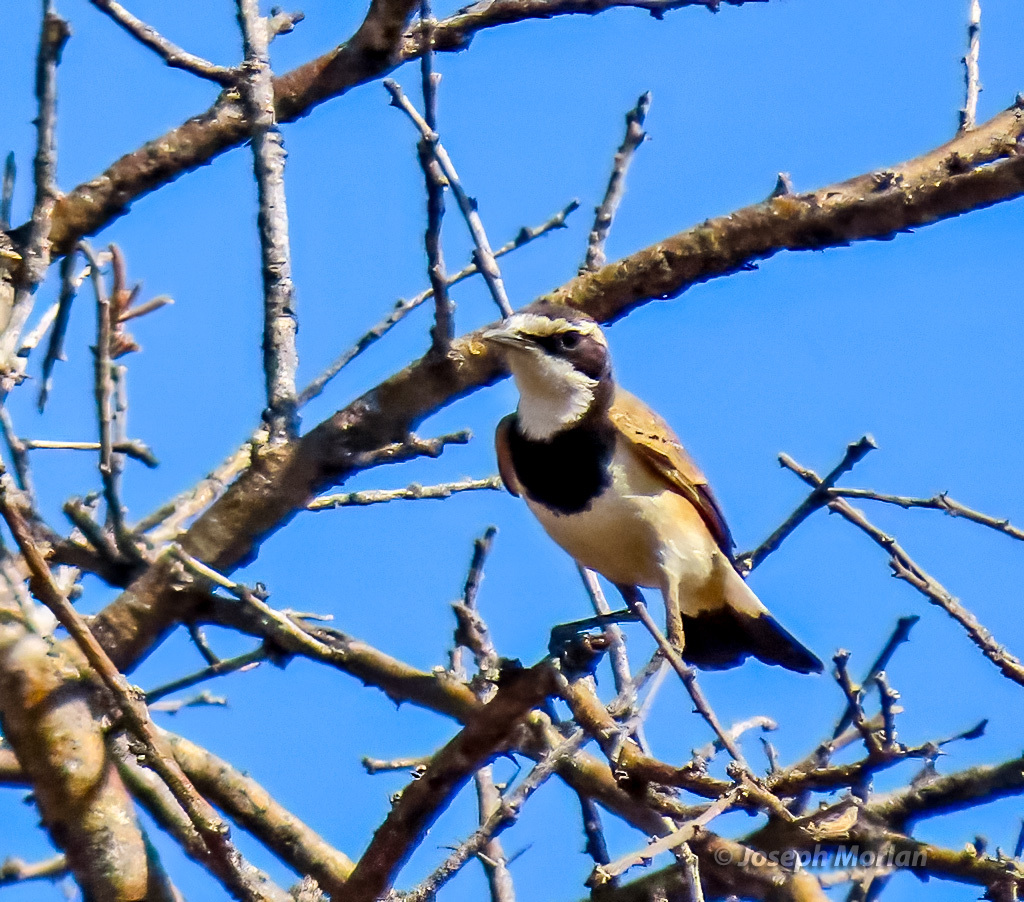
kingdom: Animalia
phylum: Chordata
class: Aves
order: Passeriformes
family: Muscicapidae
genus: Oenanthe
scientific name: Oenanthe pileata
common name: Capped wheatear
